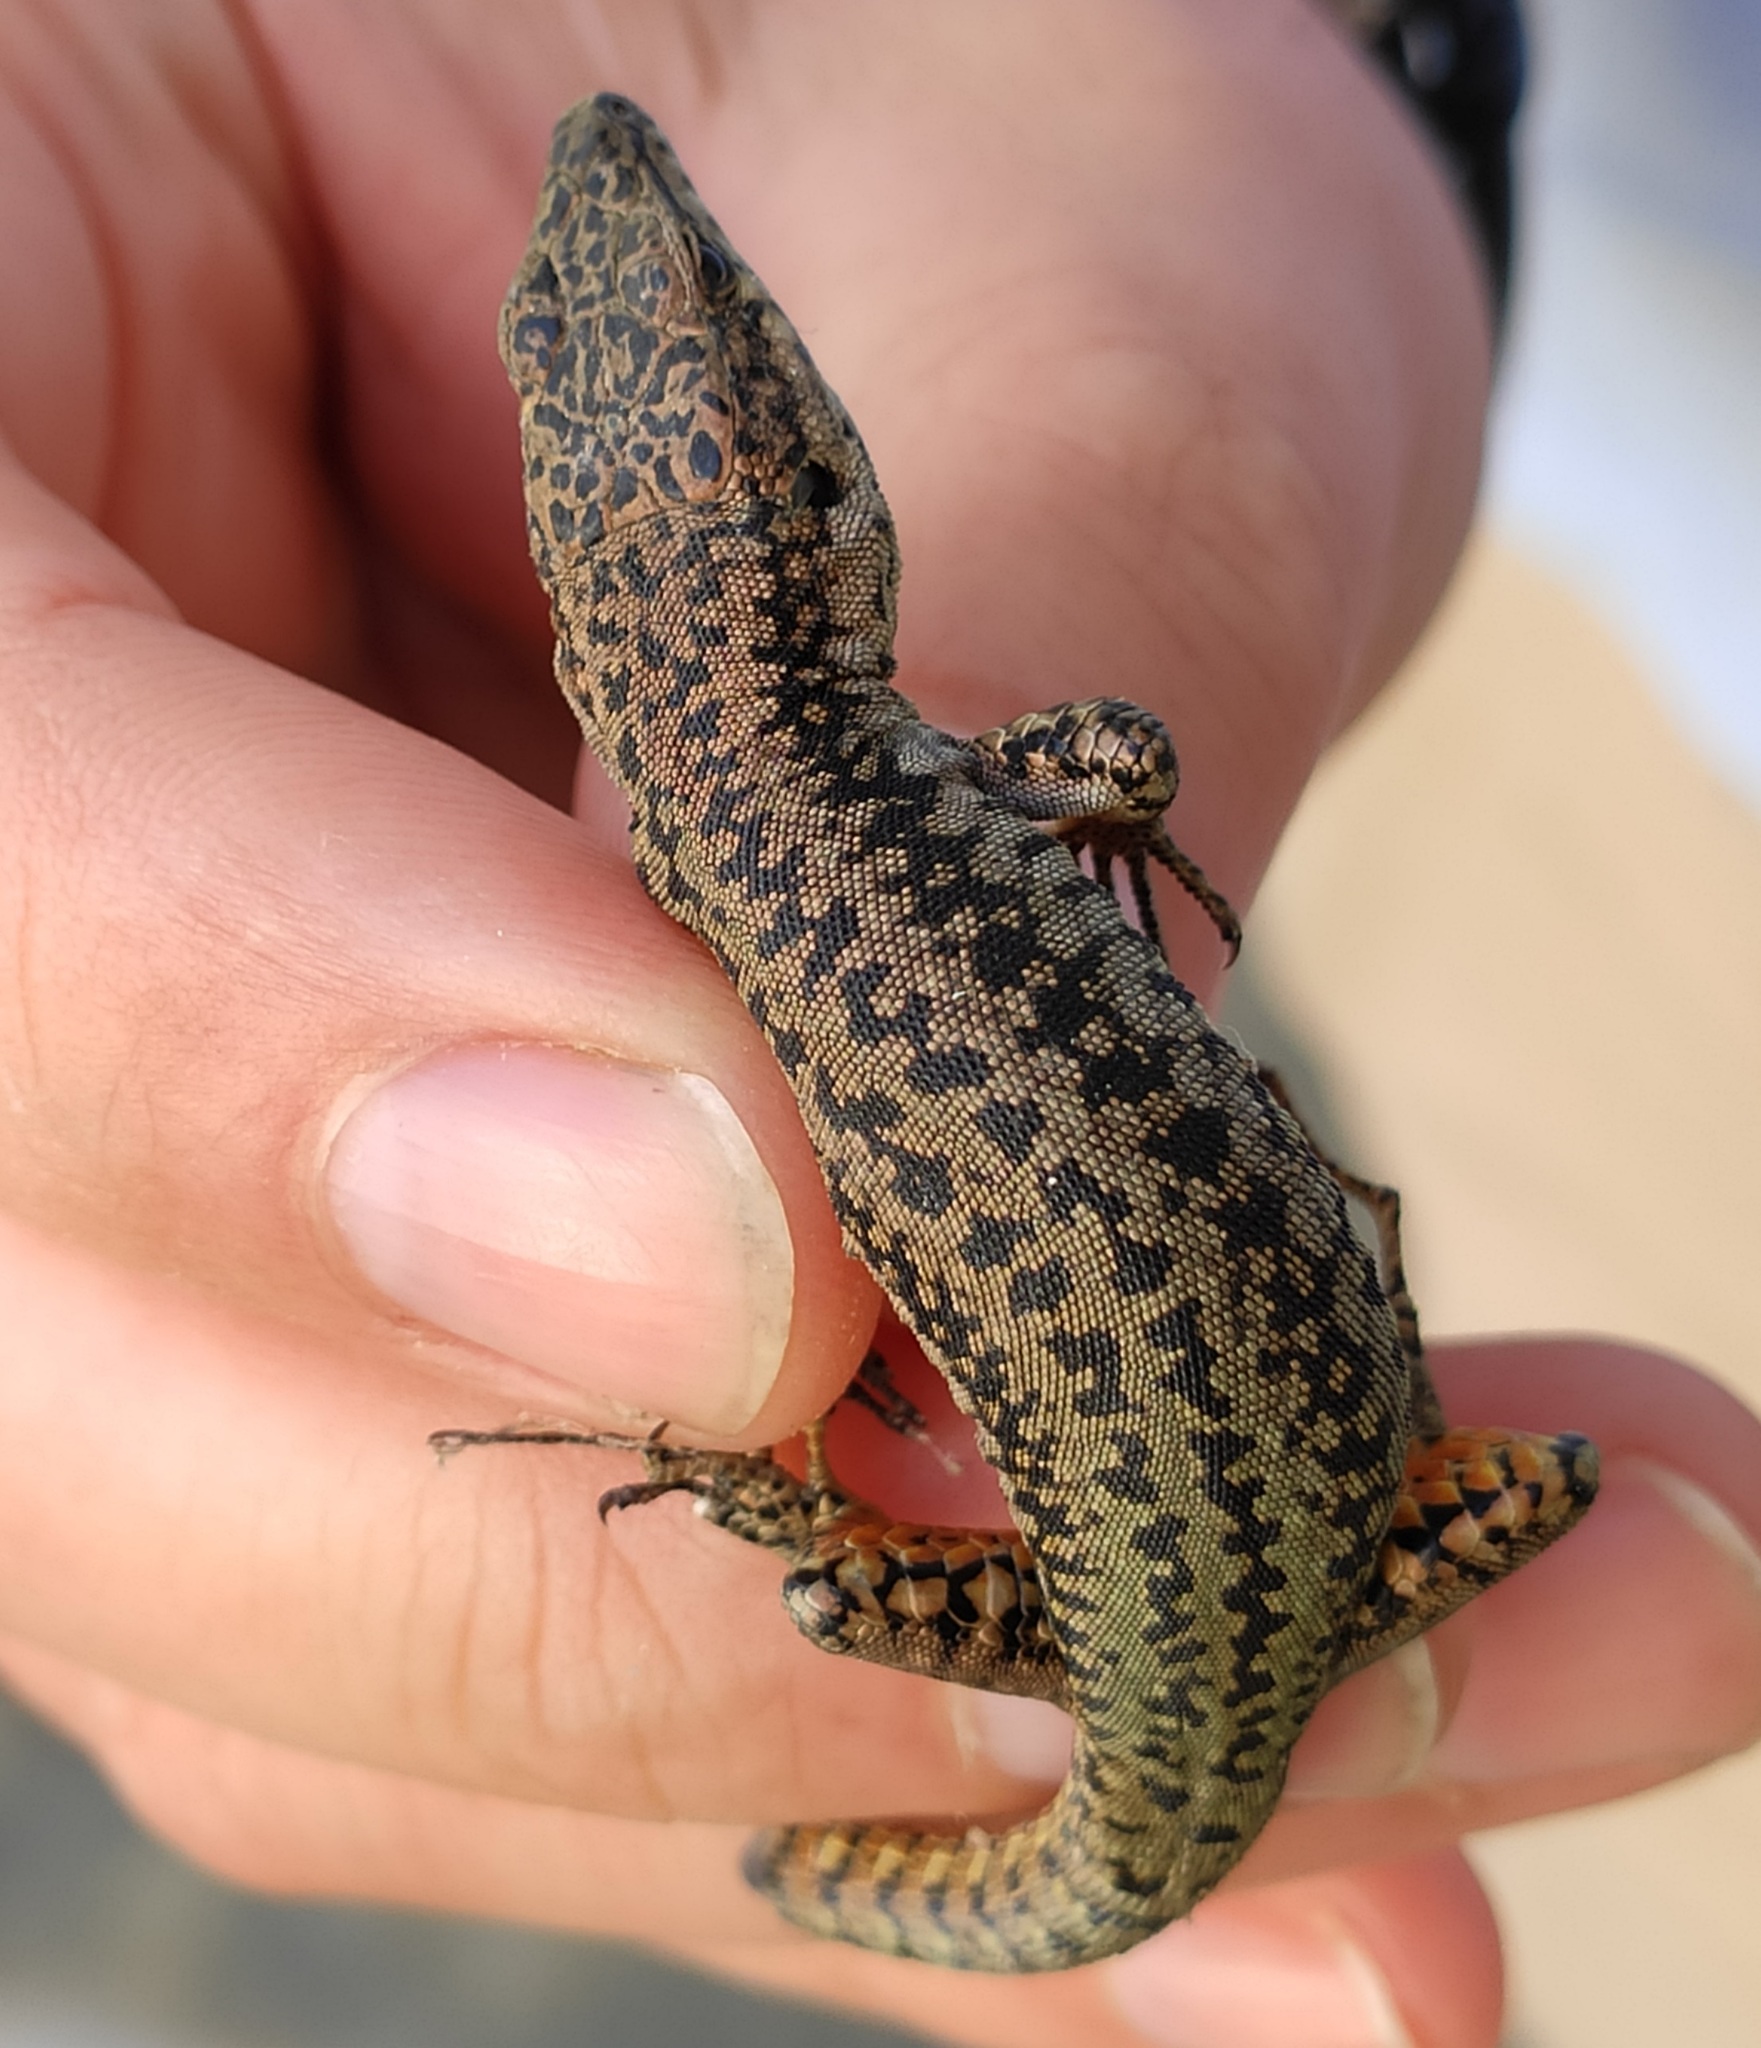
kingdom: Animalia
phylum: Chordata
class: Squamata
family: Lacertidae
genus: Podarcis
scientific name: Podarcis virescens
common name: Geniez’s wall lizard
